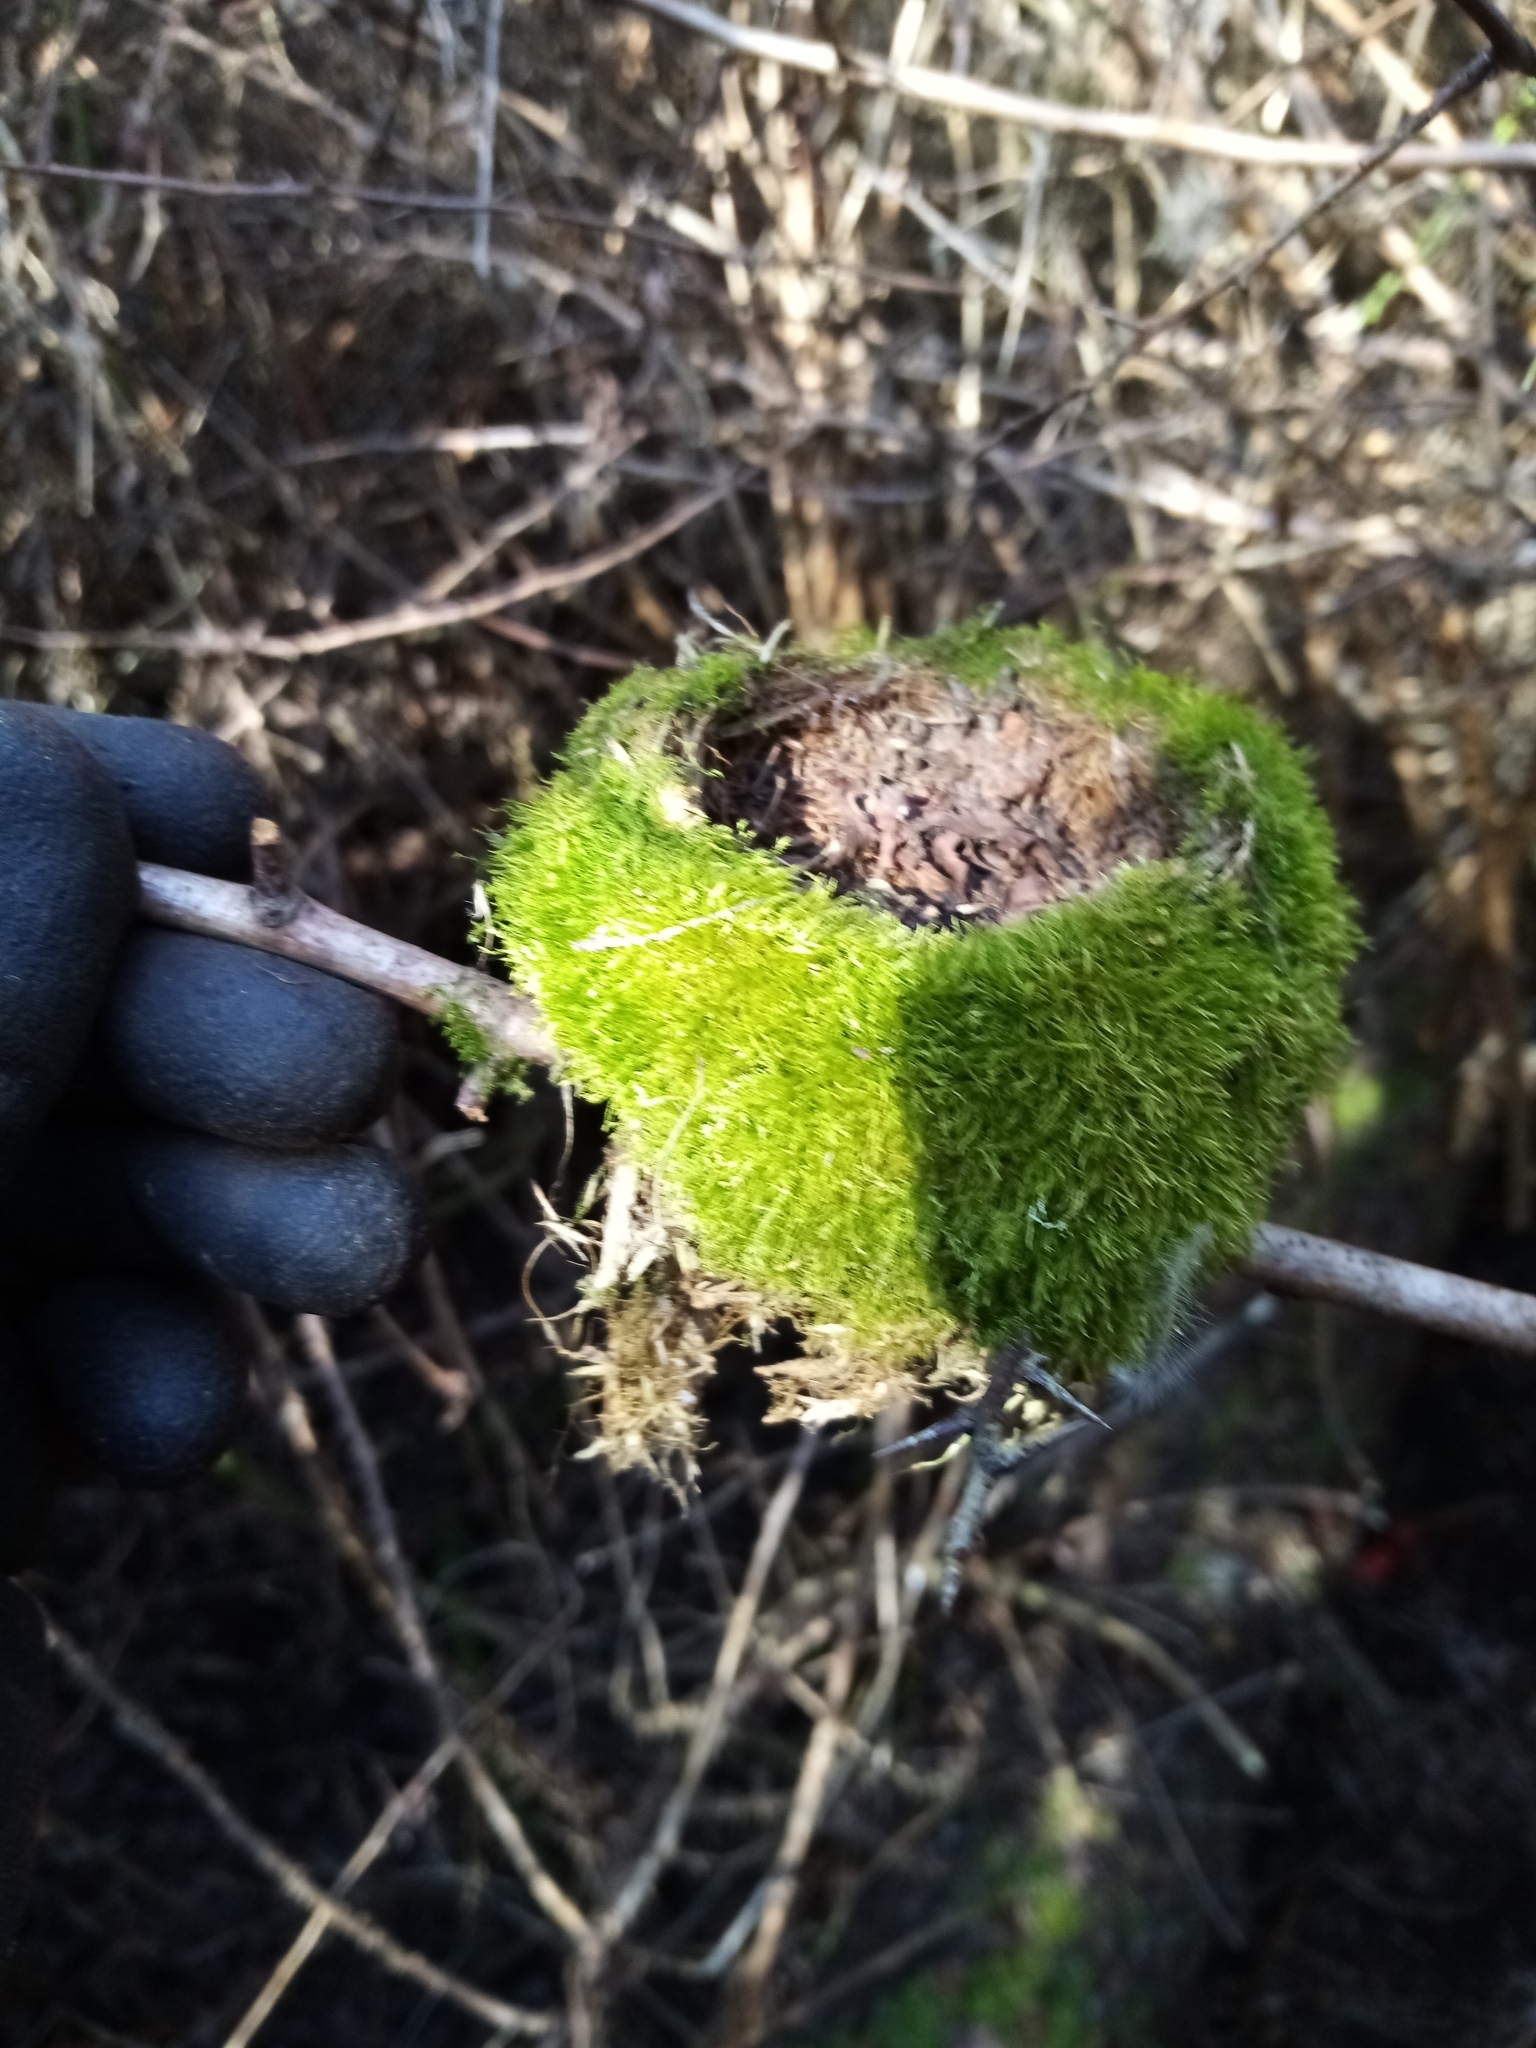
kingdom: Animalia
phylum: Chordata
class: Aves
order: Passeriformes
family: Rhipiduridae
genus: Rhipidura
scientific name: Rhipidura fuliginosa
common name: New zealand fantail
